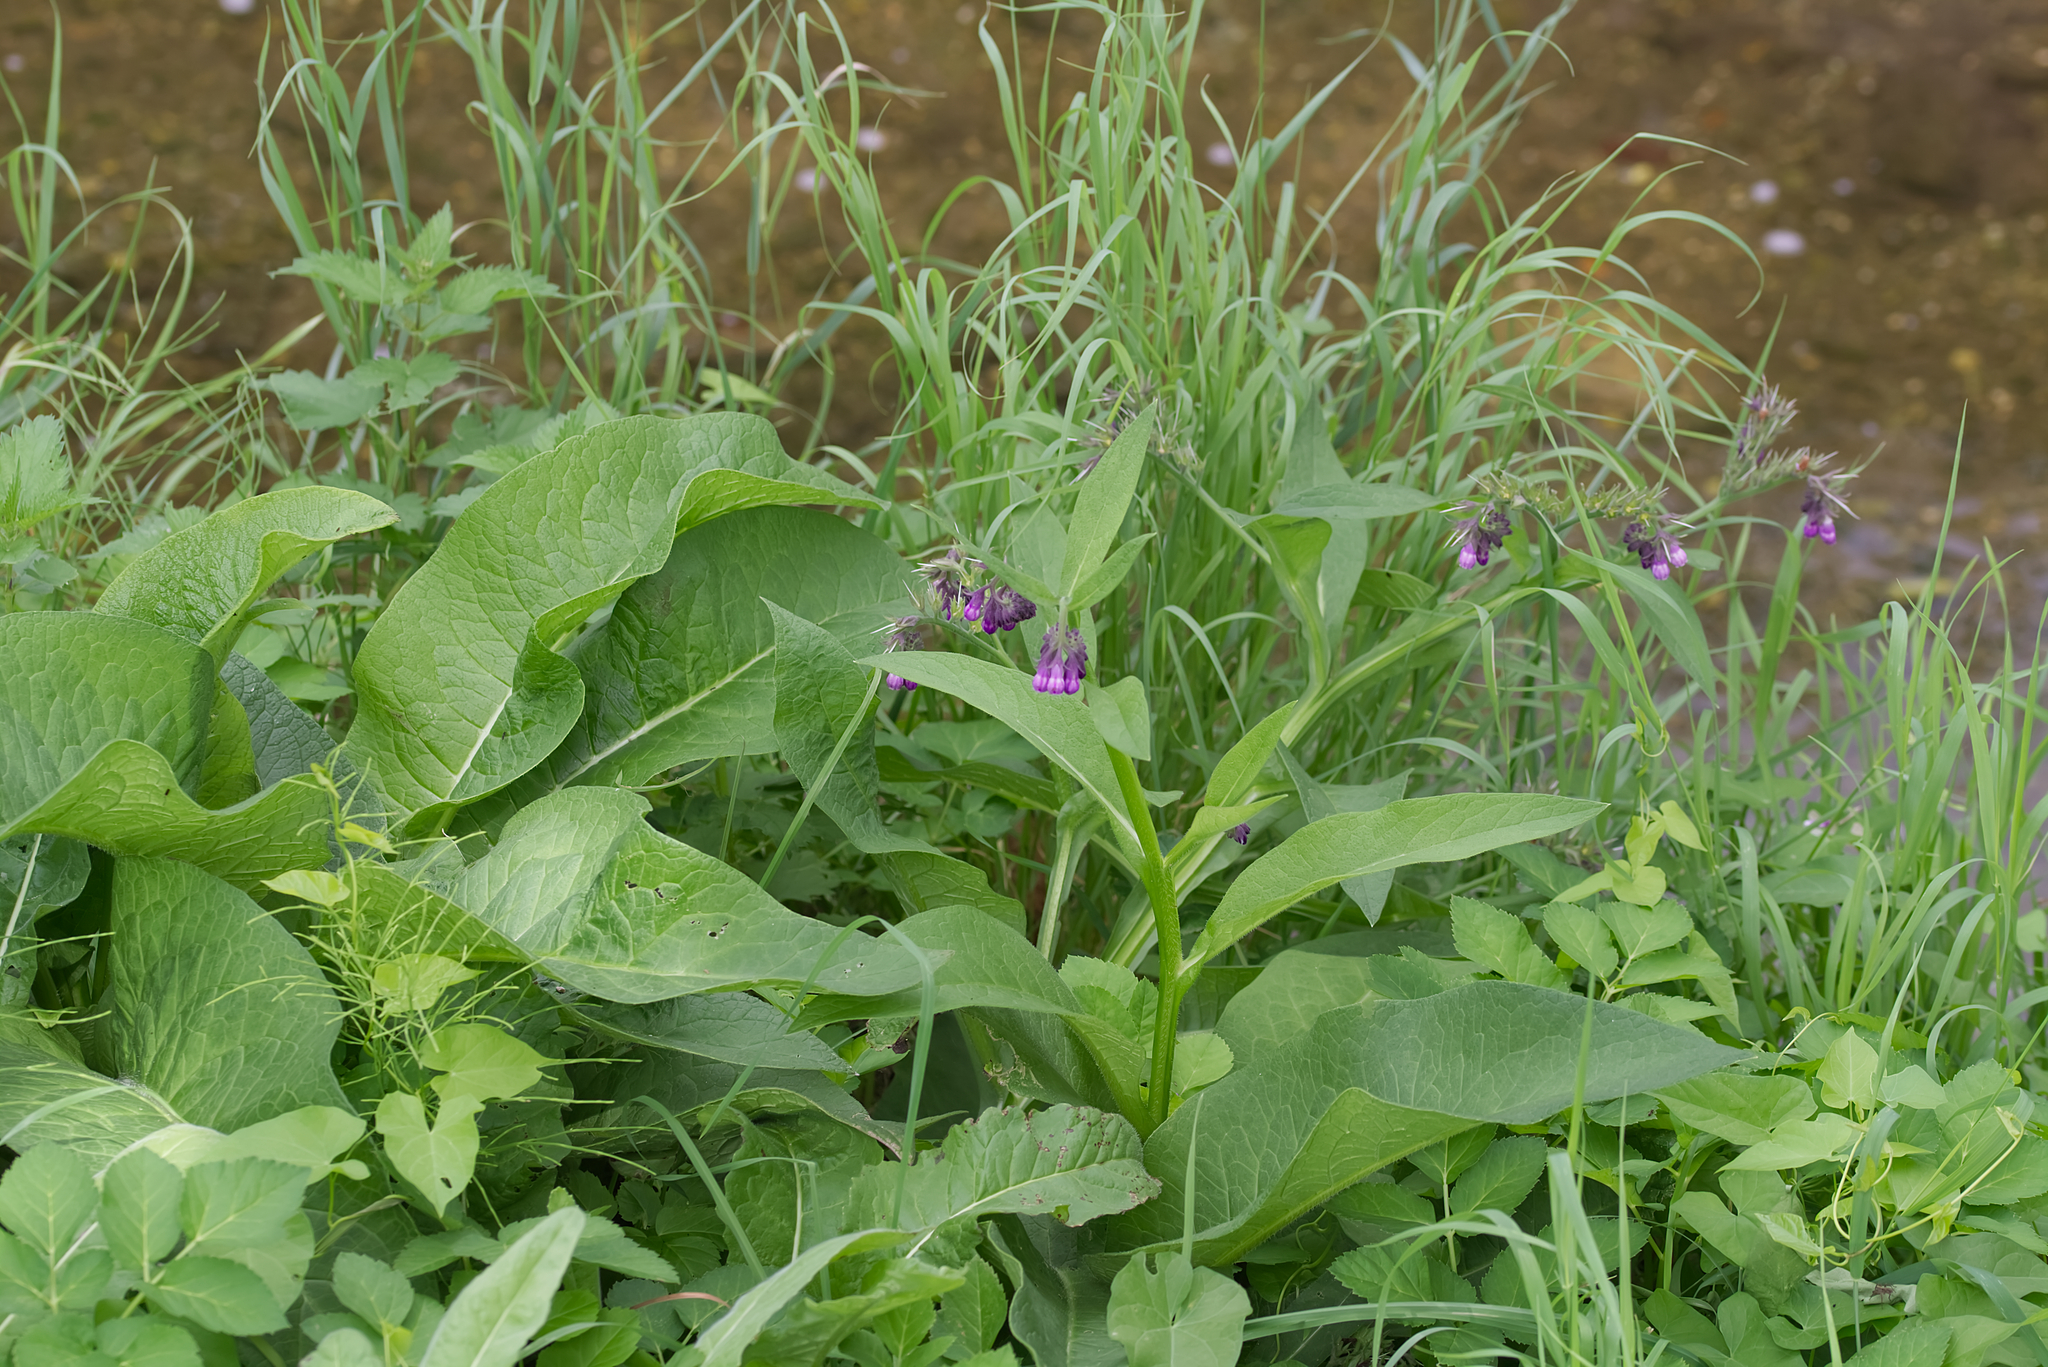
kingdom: Plantae
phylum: Tracheophyta
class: Magnoliopsida
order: Boraginales
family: Boraginaceae
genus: Symphytum
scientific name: Symphytum officinale
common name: Common comfrey
